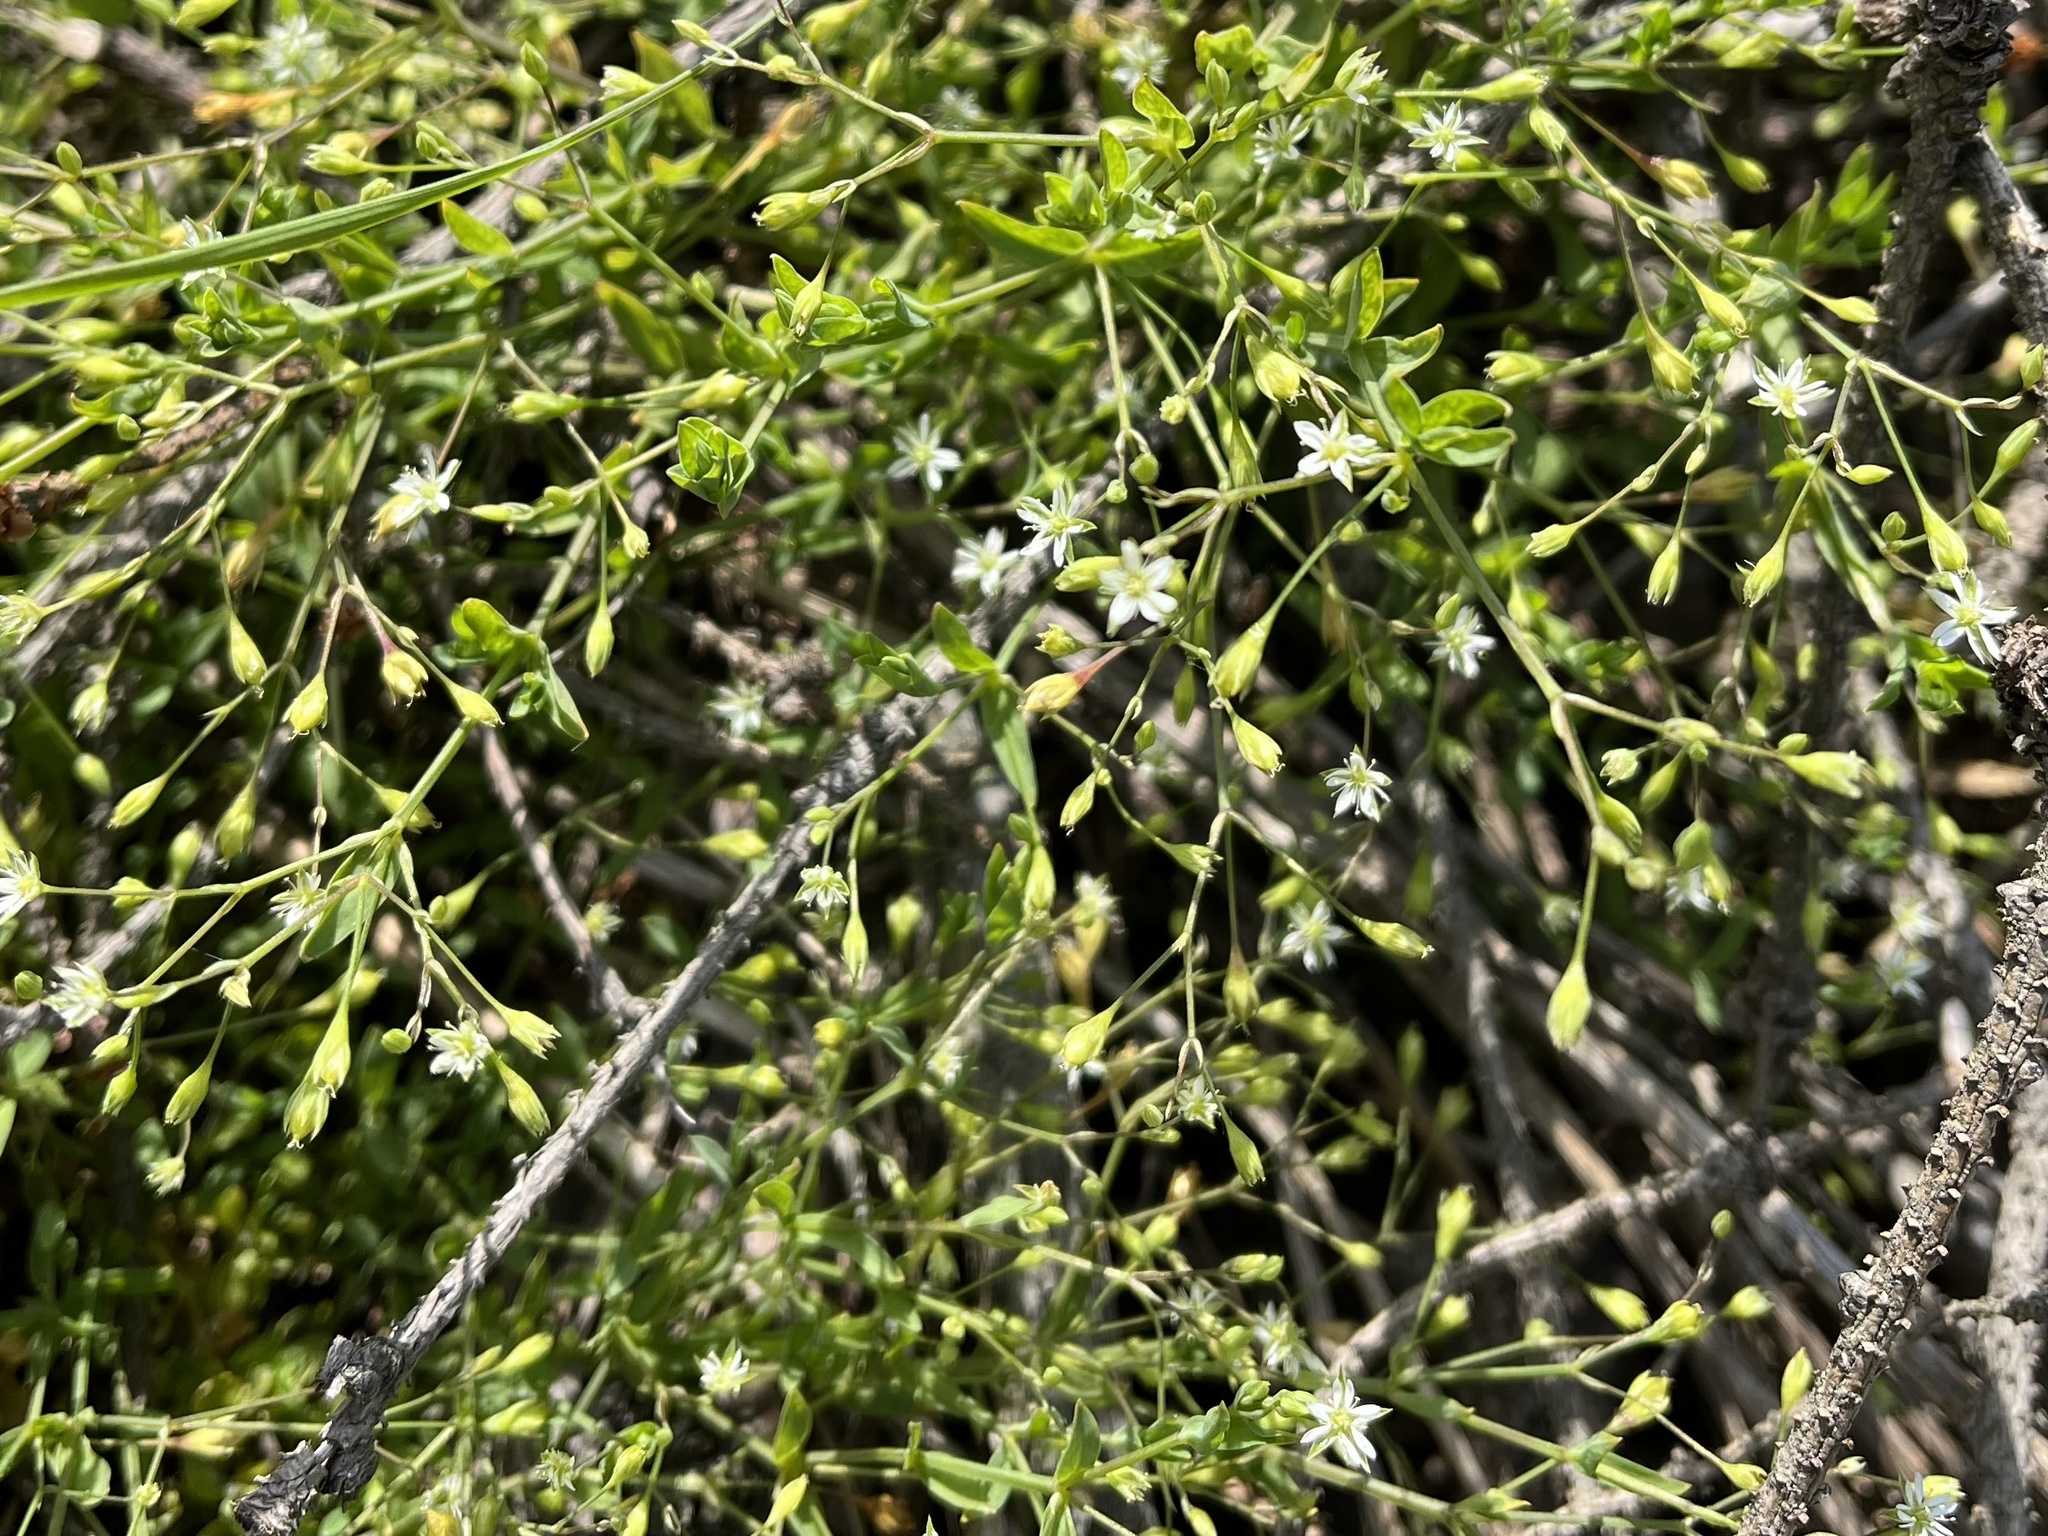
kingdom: Plantae
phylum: Tracheophyta
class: Magnoliopsida
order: Caryophyllales
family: Caryophyllaceae
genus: Stellaria
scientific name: Stellaria alsine
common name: Bog stitchwort
